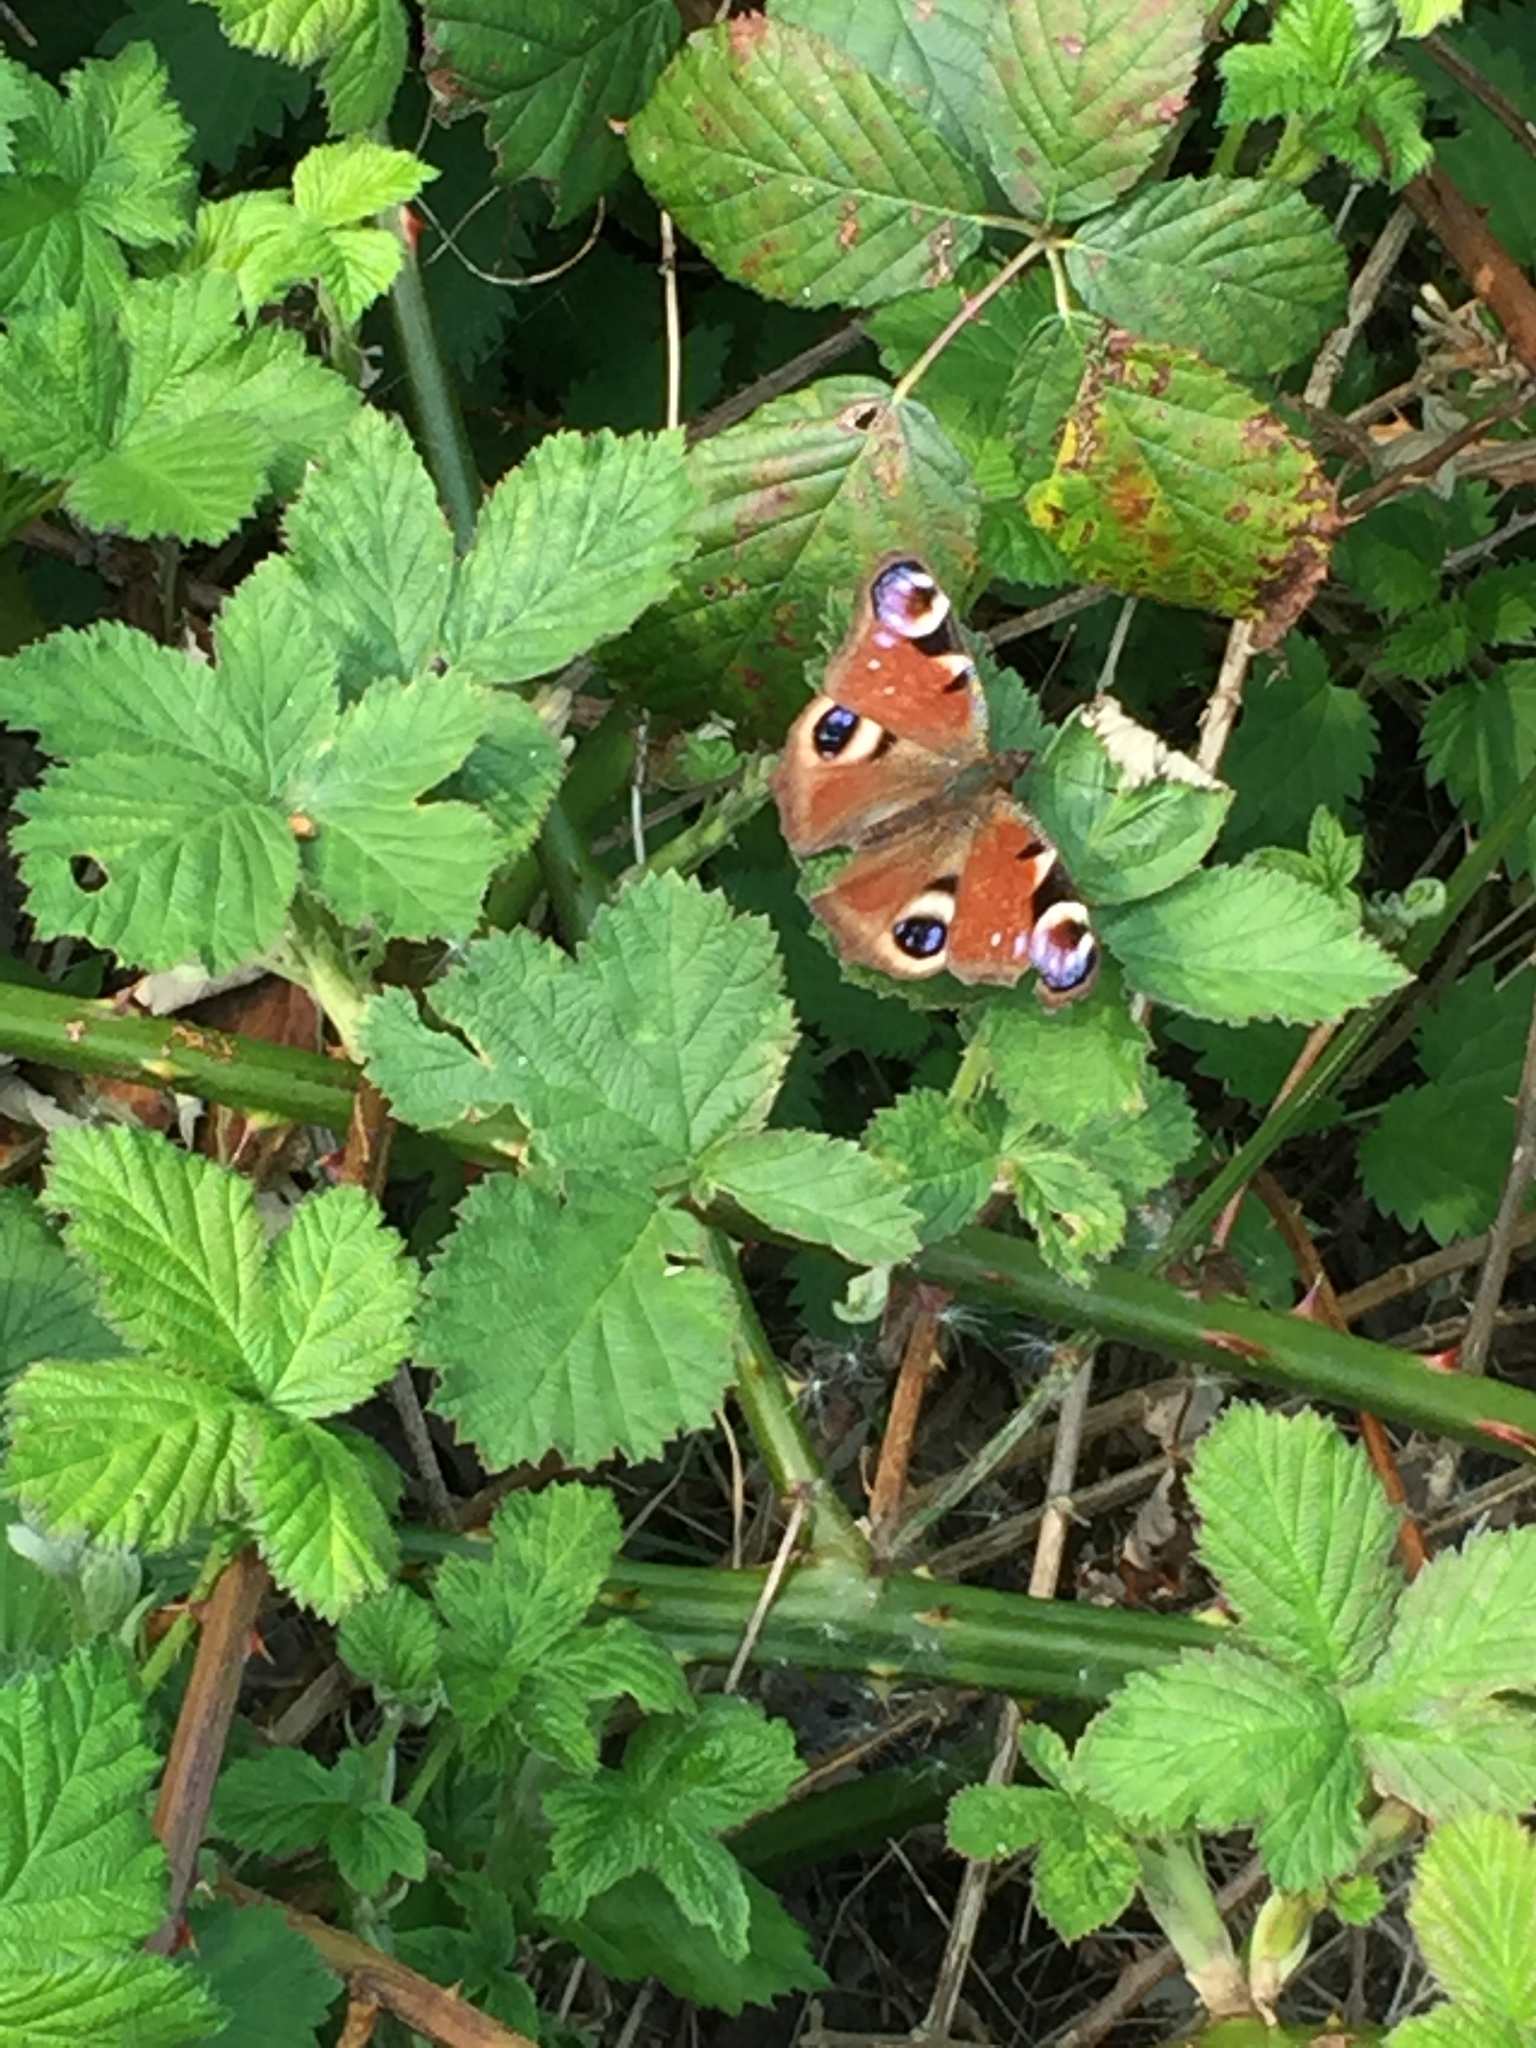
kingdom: Animalia
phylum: Arthropoda
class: Insecta
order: Lepidoptera
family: Nymphalidae
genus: Aglais
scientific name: Aglais io
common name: Peacock
